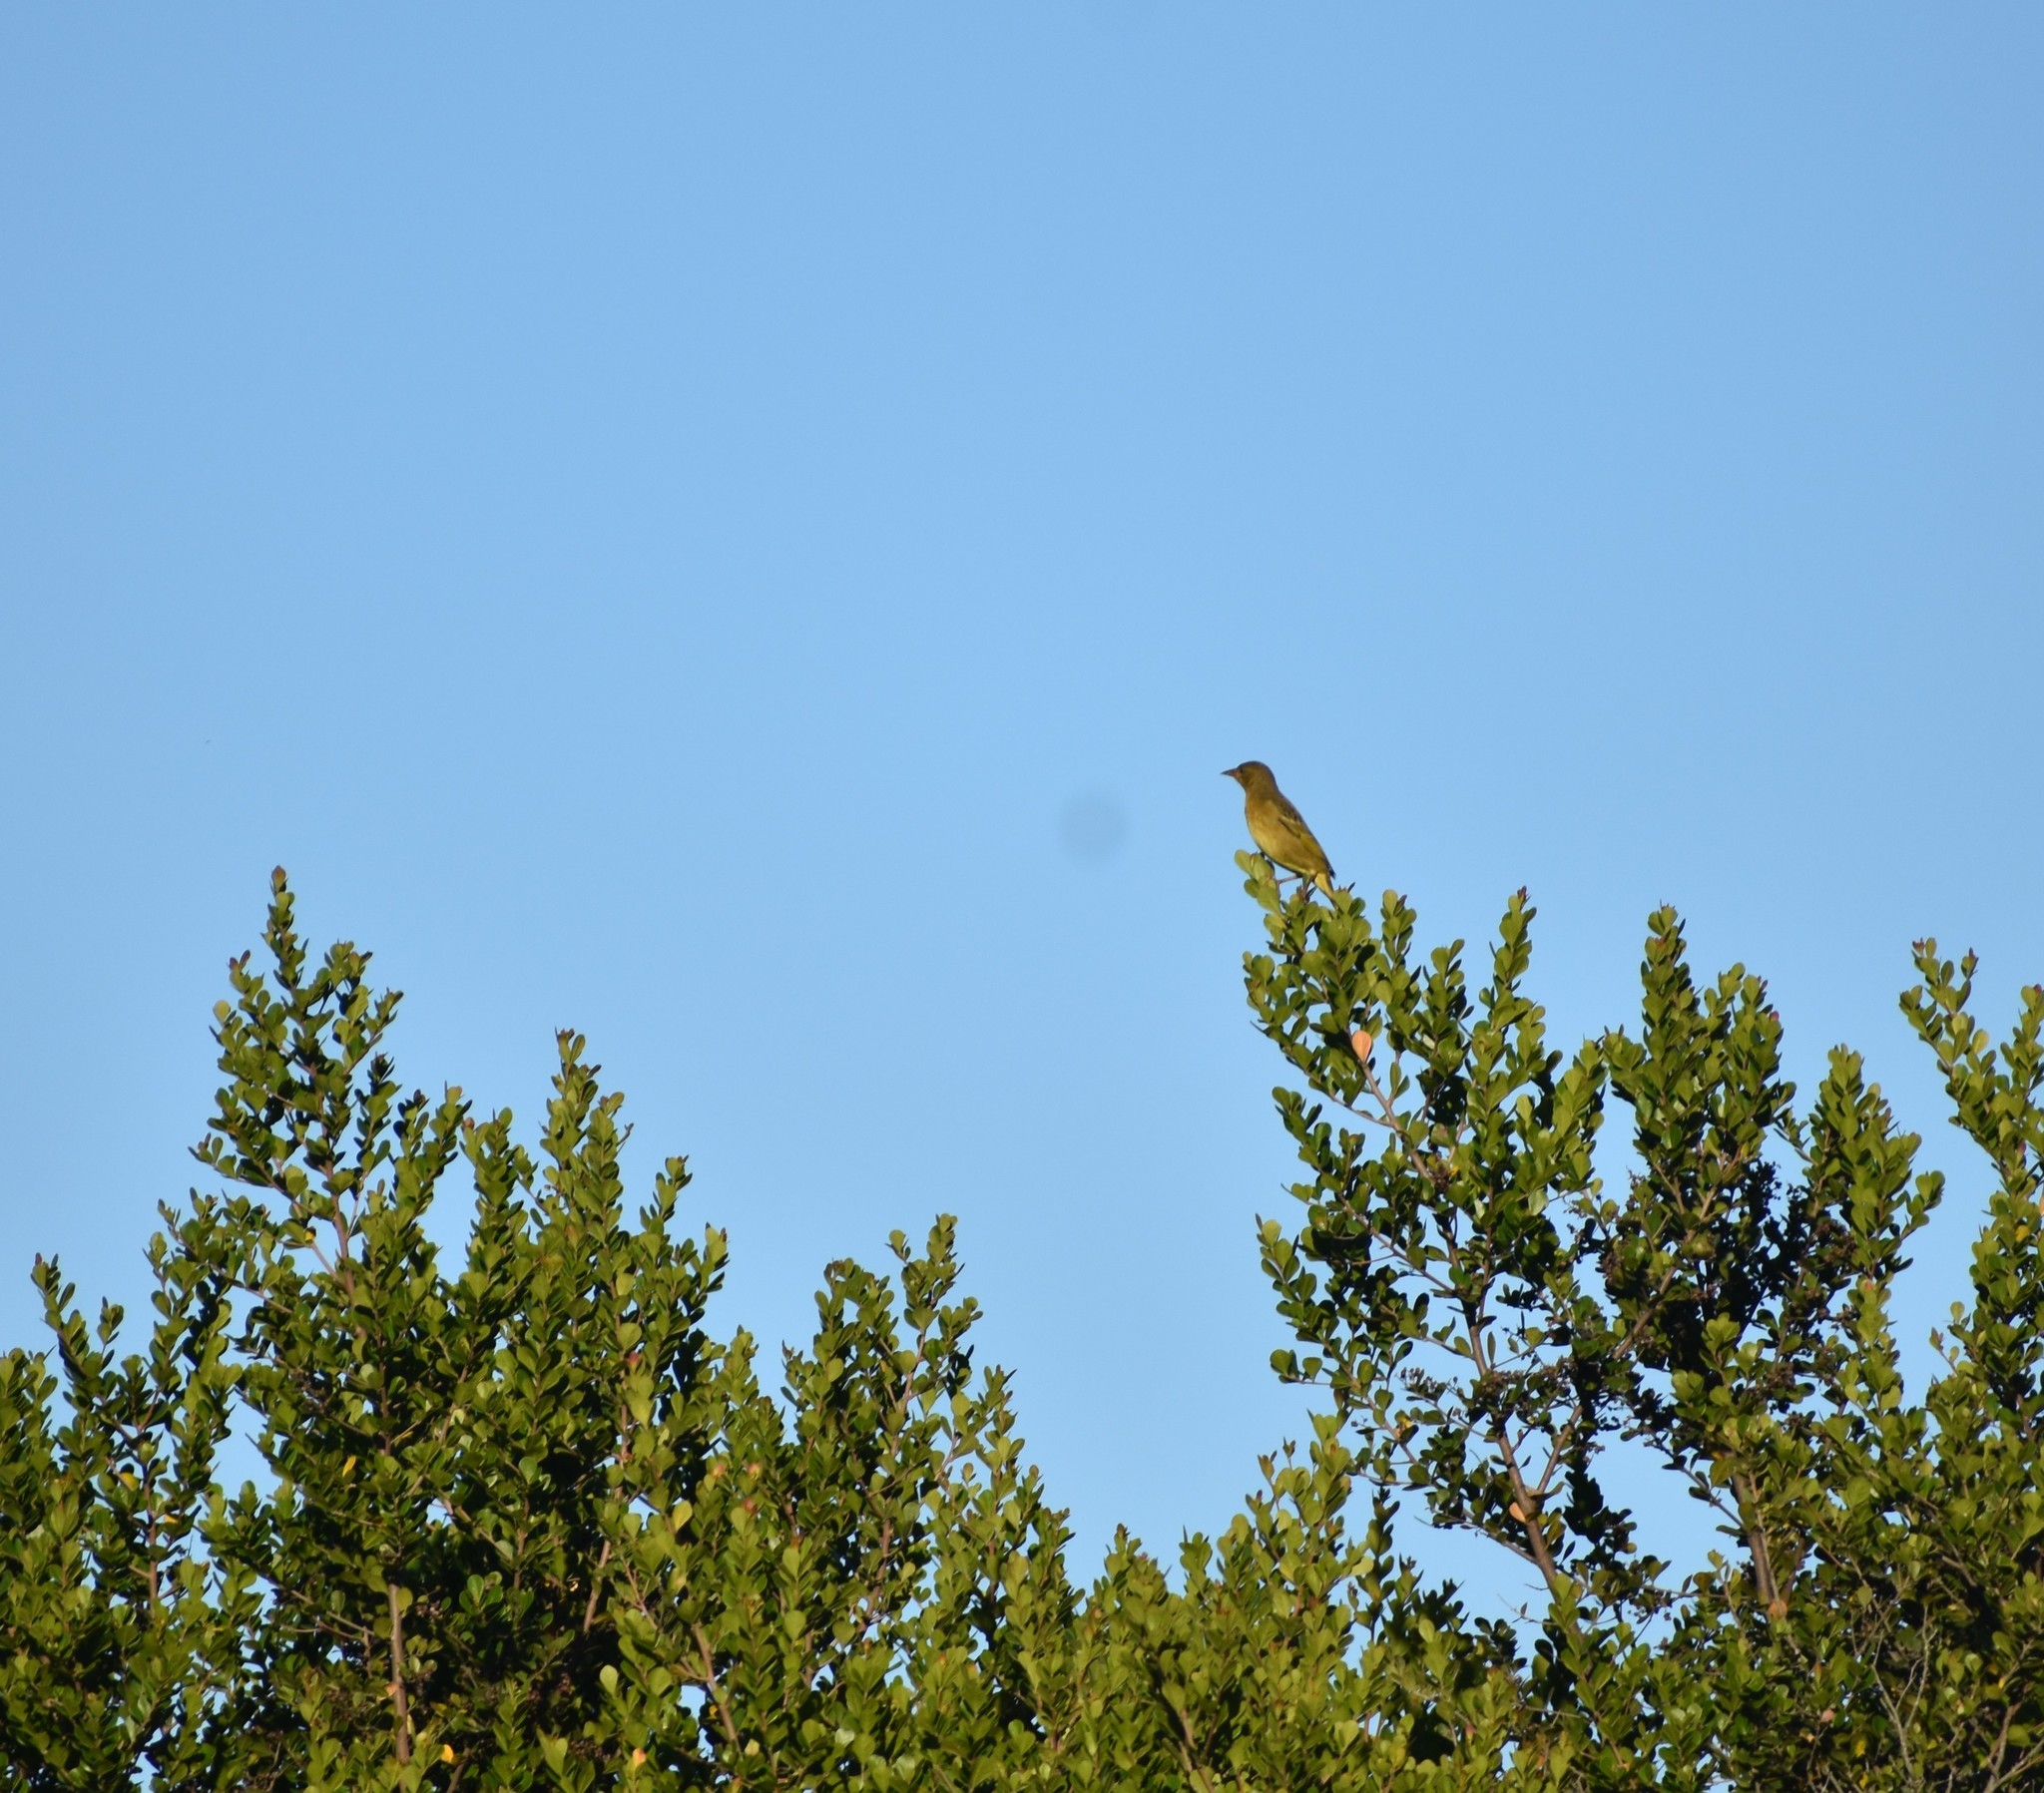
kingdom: Animalia
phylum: Chordata
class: Aves
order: Passeriformes
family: Ploceidae
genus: Ploceus
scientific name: Ploceus capensis
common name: Cape weaver
